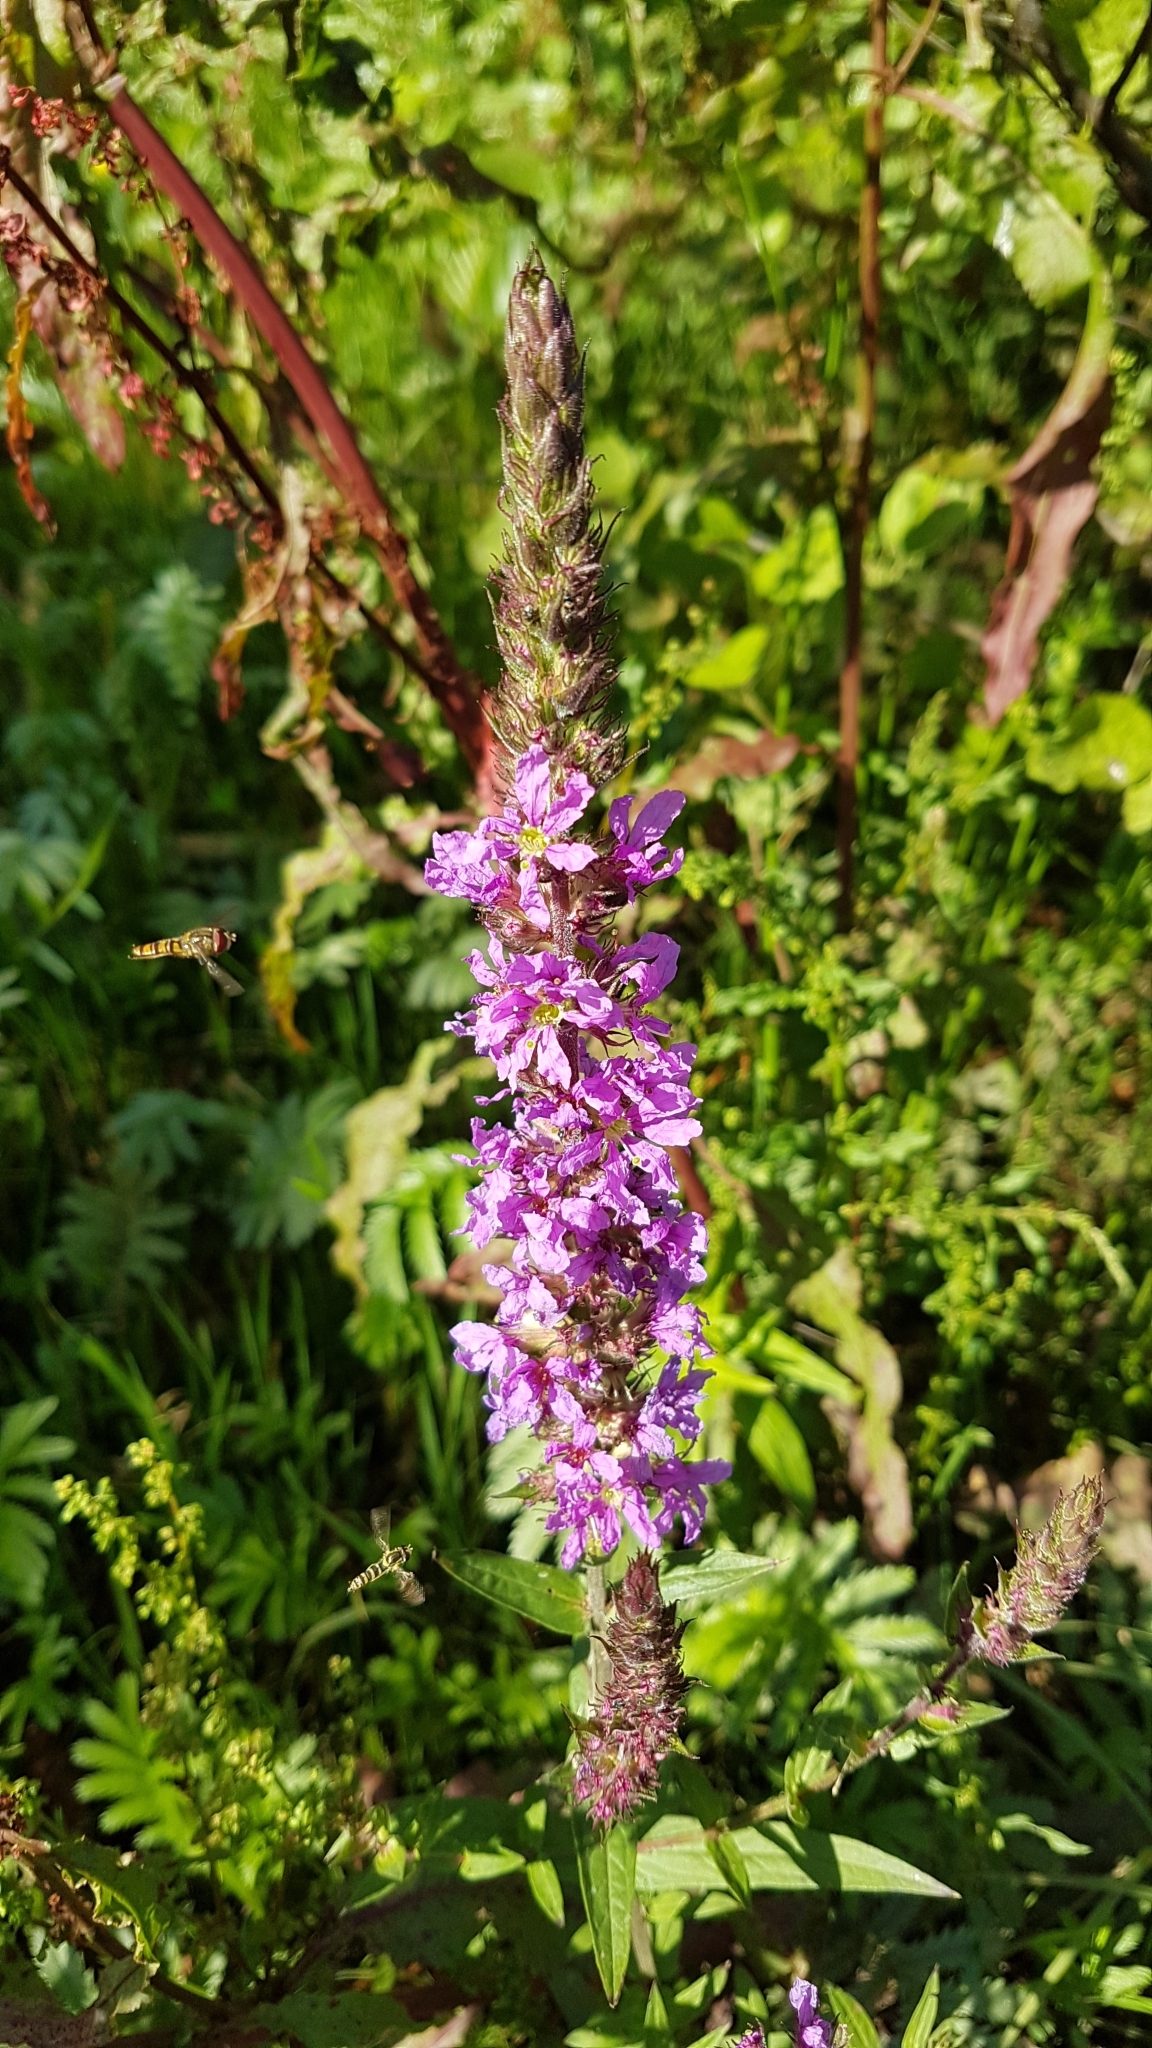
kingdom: Plantae
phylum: Tracheophyta
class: Magnoliopsida
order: Myrtales
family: Lythraceae
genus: Lythrum
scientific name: Lythrum salicaria
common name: Purple loosestrife
